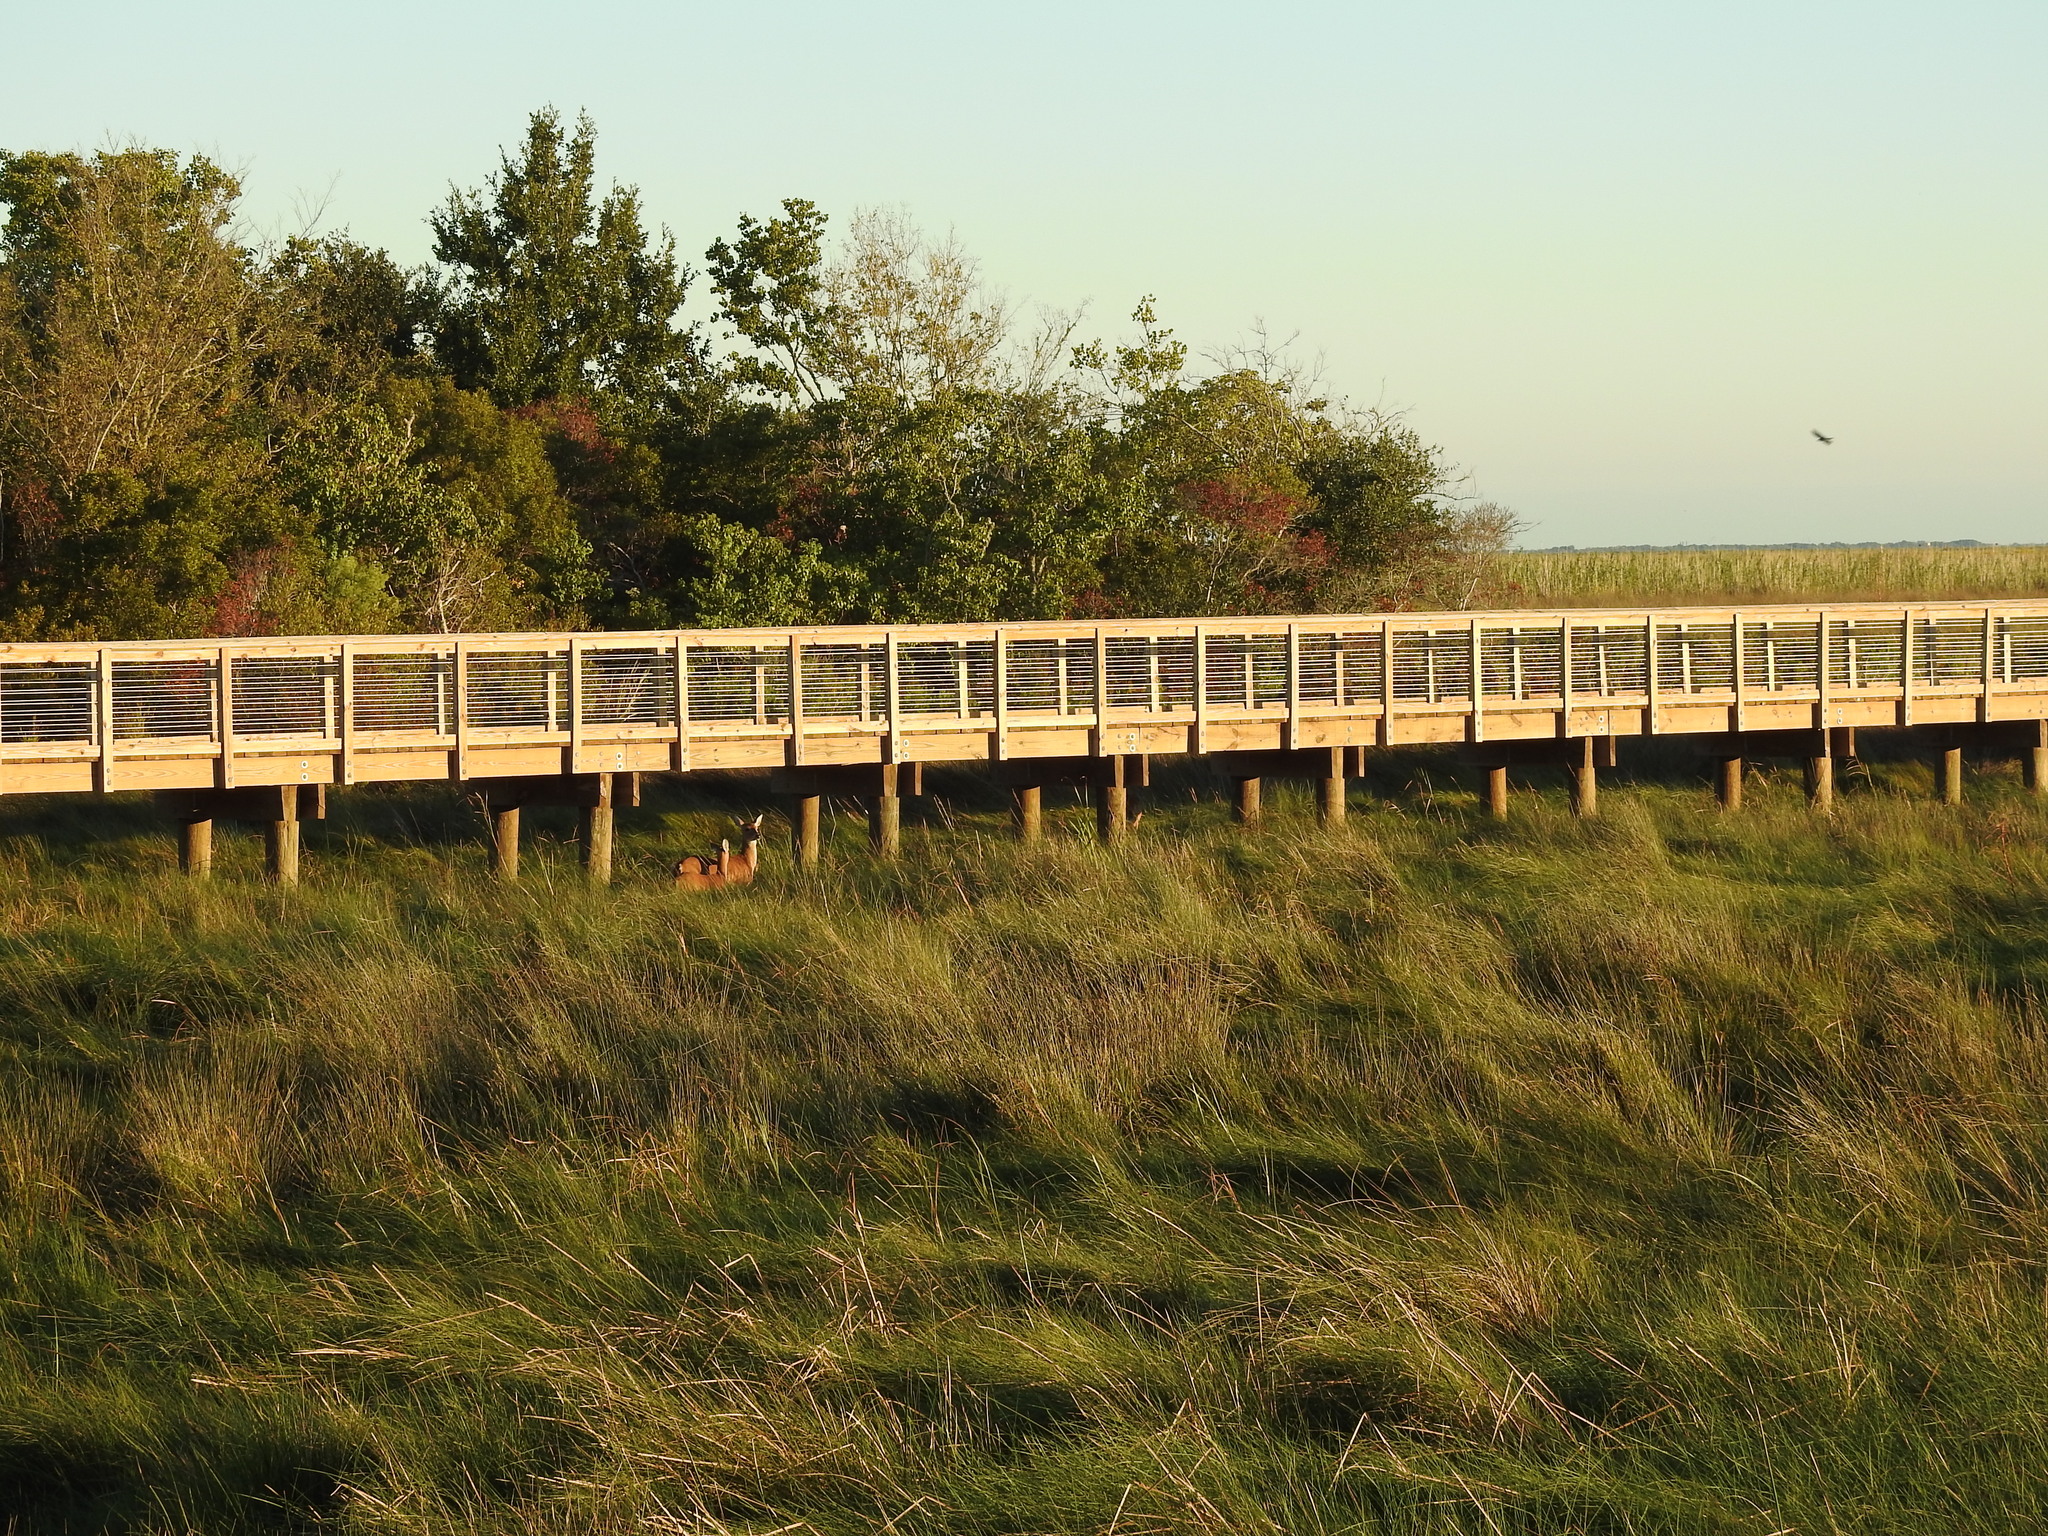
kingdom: Animalia
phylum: Chordata
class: Mammalia
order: Artiodactyla
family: Cervidae
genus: Odocoileus
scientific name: Odocoileus virginianus
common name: White-tailed deer
